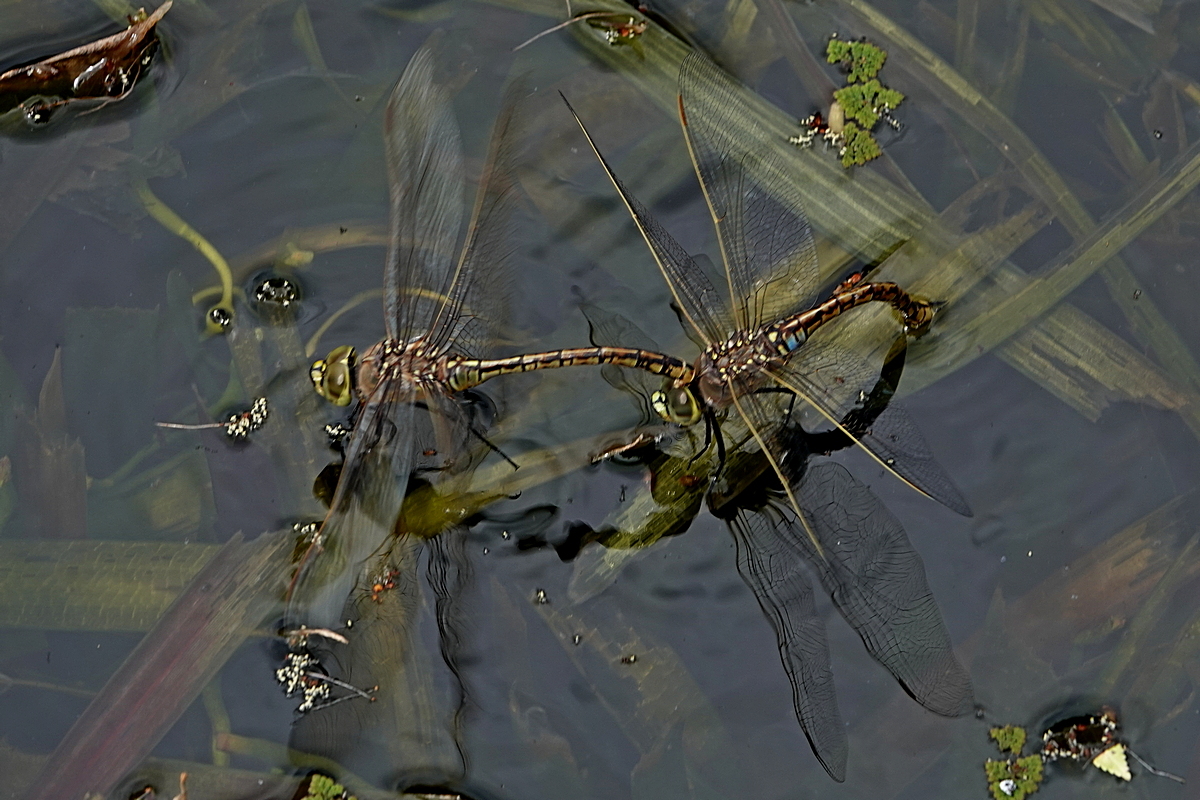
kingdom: Animalia
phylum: Arthropoda
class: Insecta
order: Odonata
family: Aeshnidae
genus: Anax
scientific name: Anax papuensis
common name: Australian emperor
